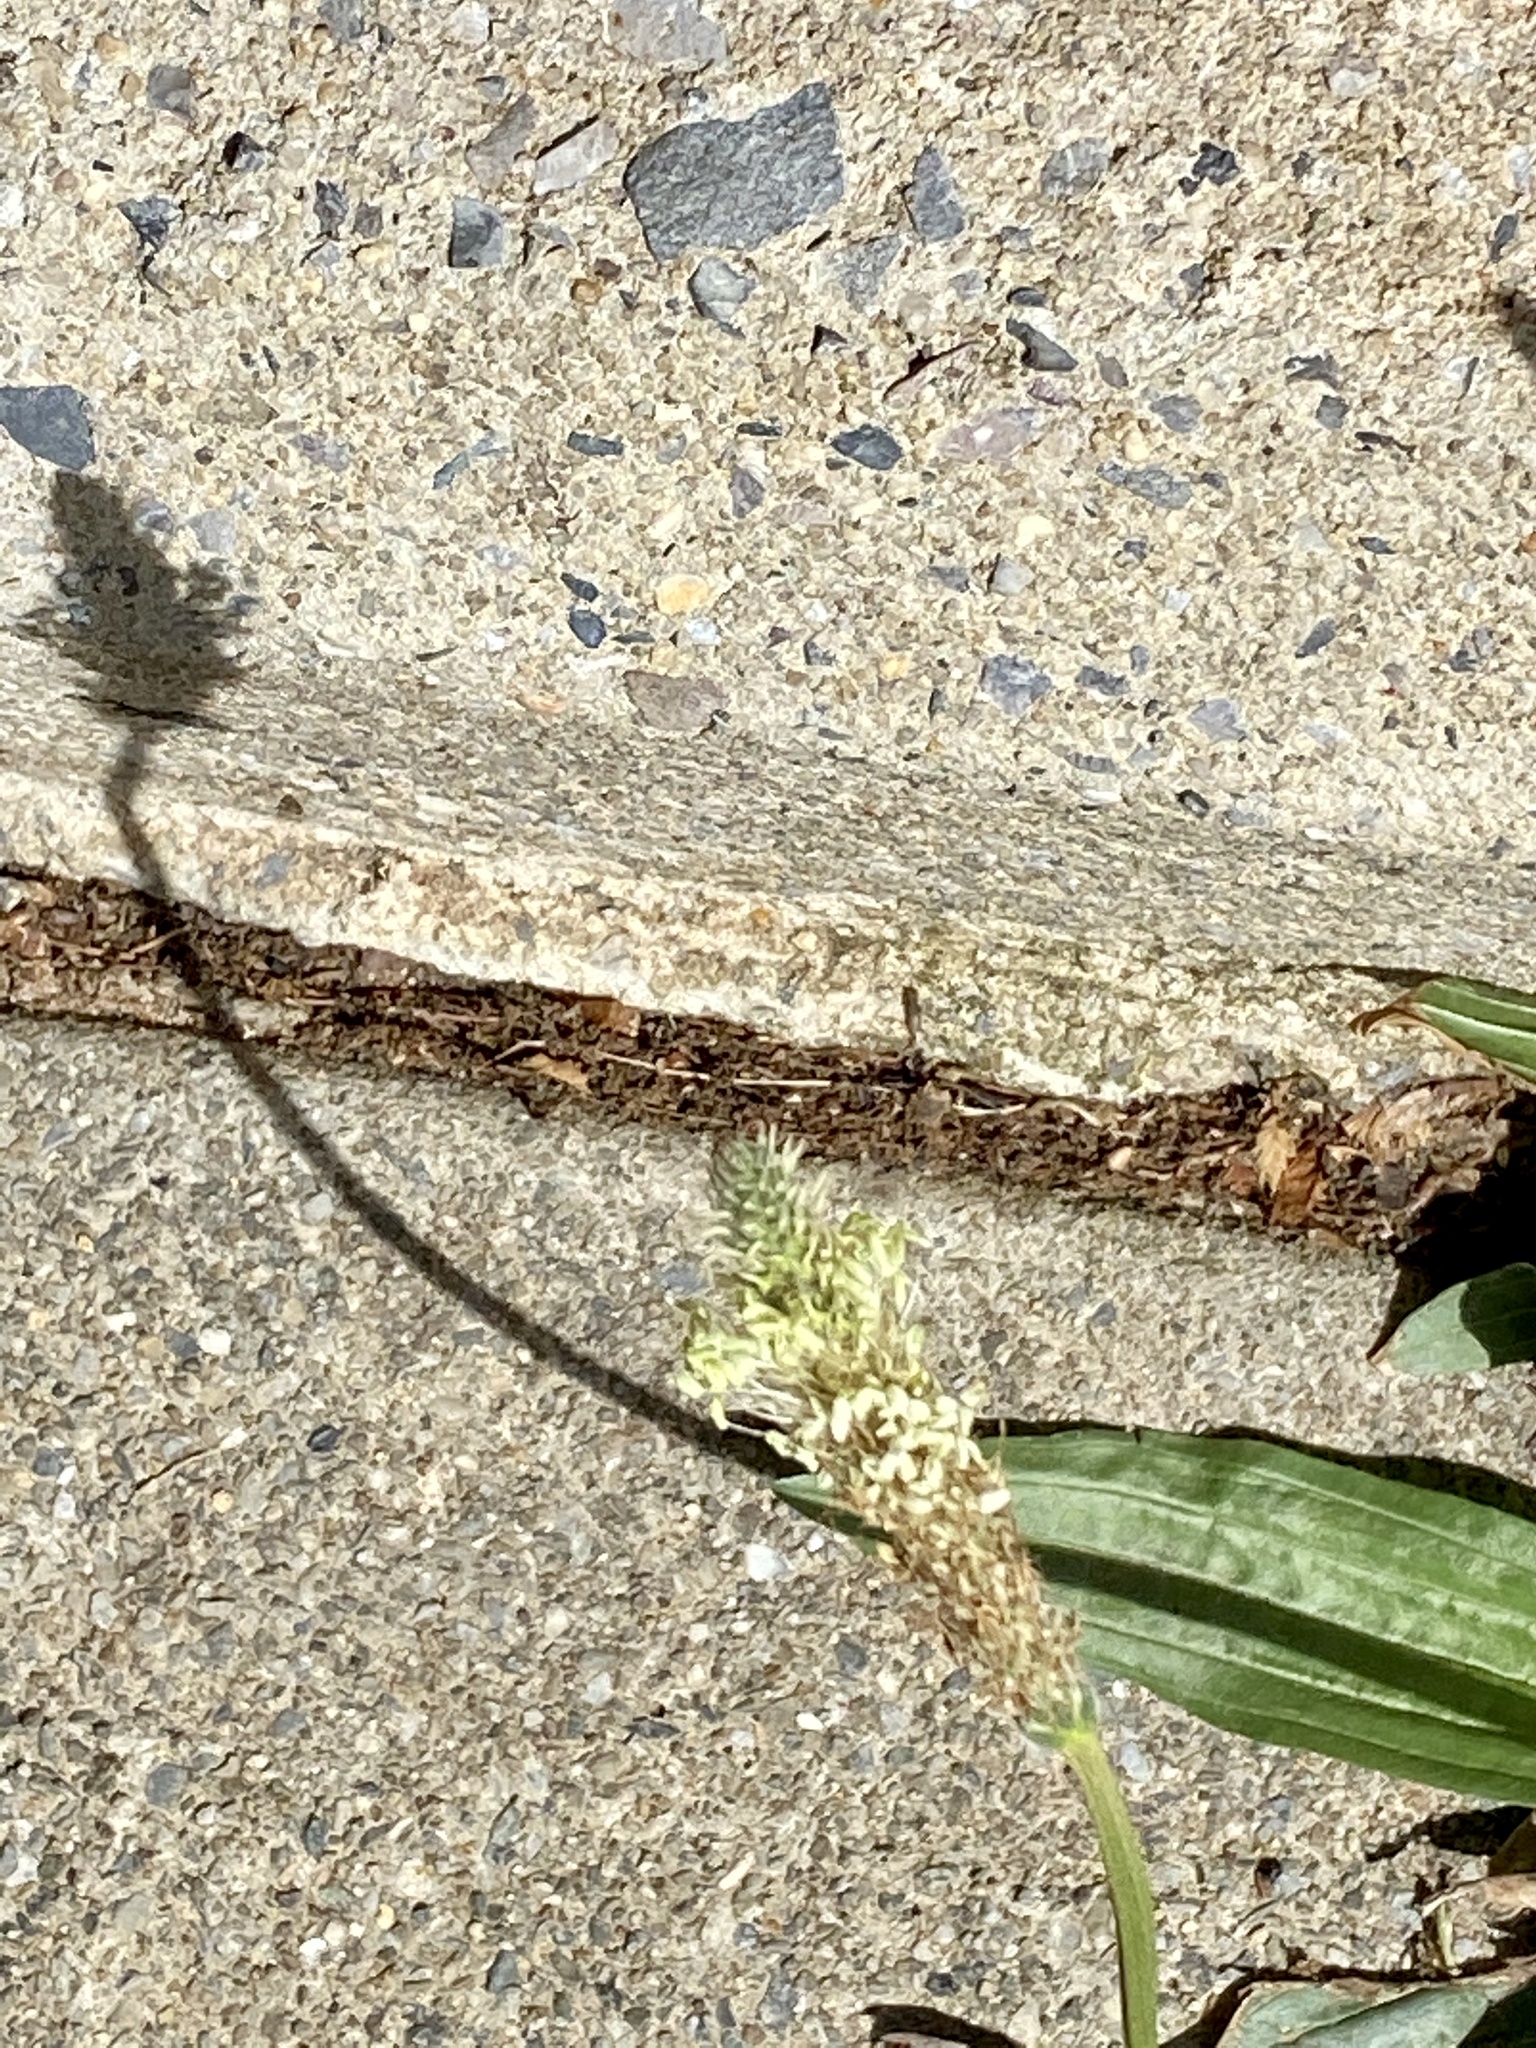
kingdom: Plantae
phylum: Tracheophyta
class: Magnoliopsida
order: Lamiales
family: Plantaginaceae
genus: Plantago
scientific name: Plantago lanceolata
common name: Ribwort plantain
